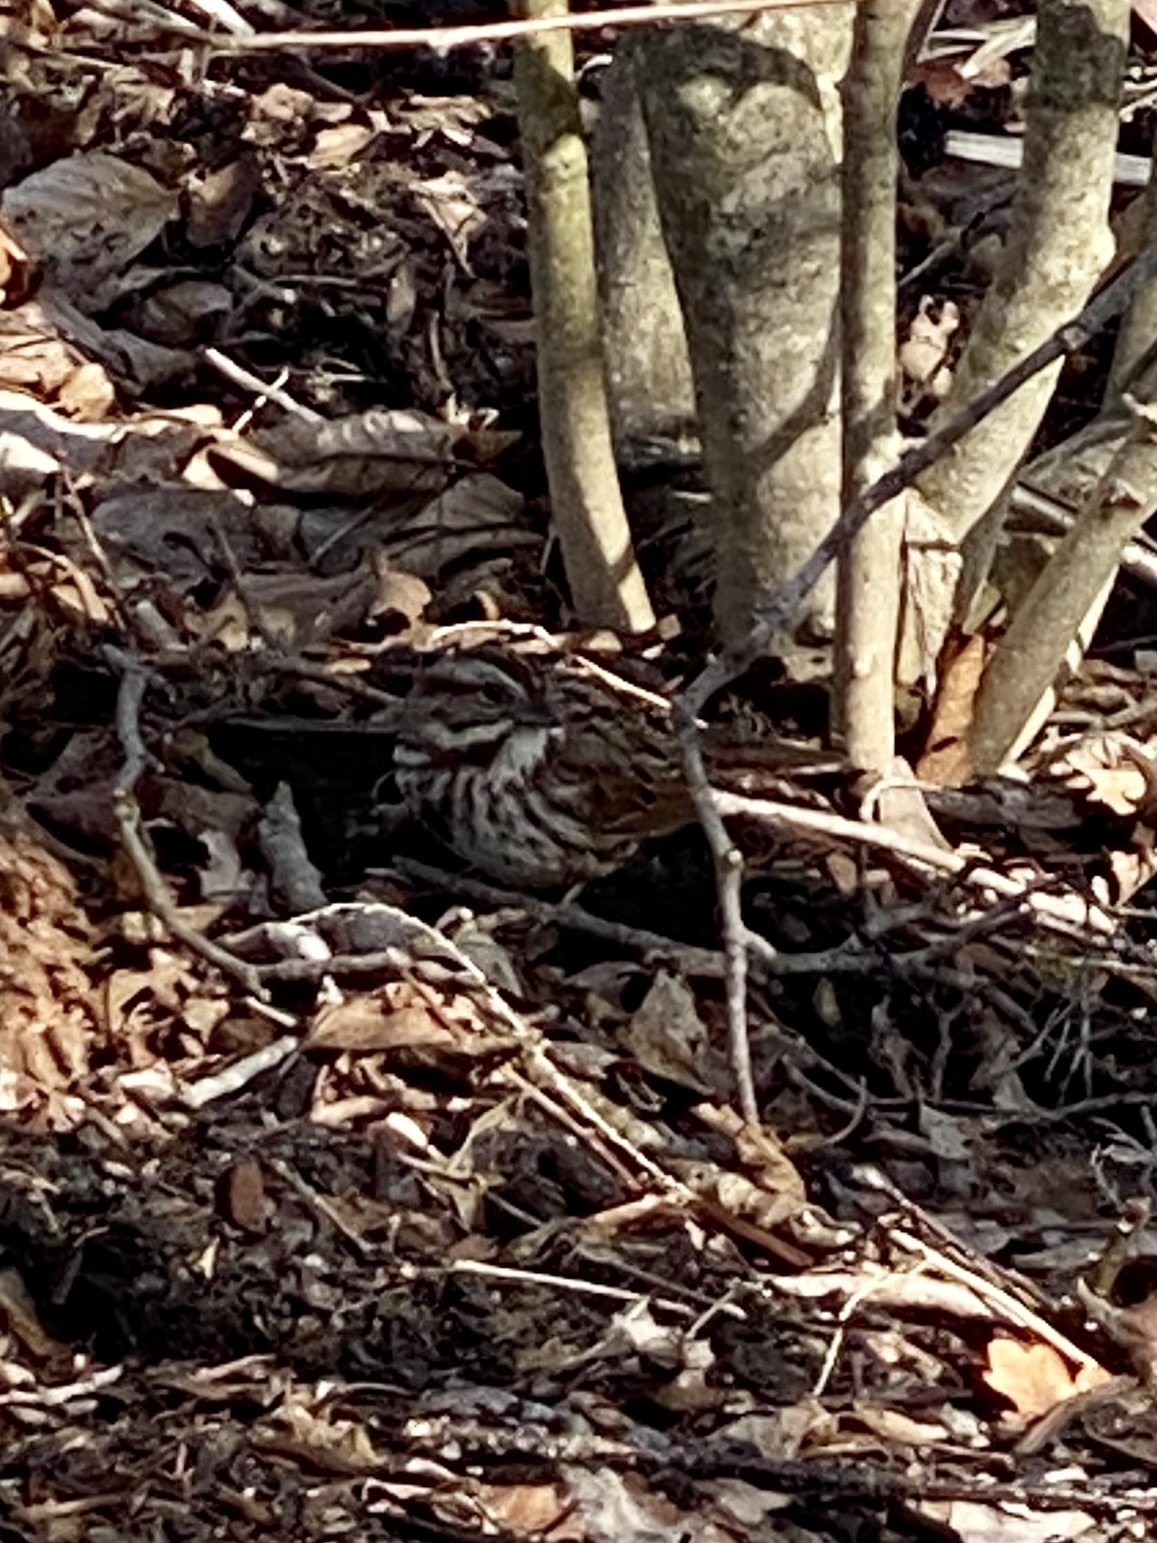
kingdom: Animalia
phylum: Chordata
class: Aves
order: Passeriformes
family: Passerellidae
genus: Melospiza
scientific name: Melospiza melodia
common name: Song sparrow
